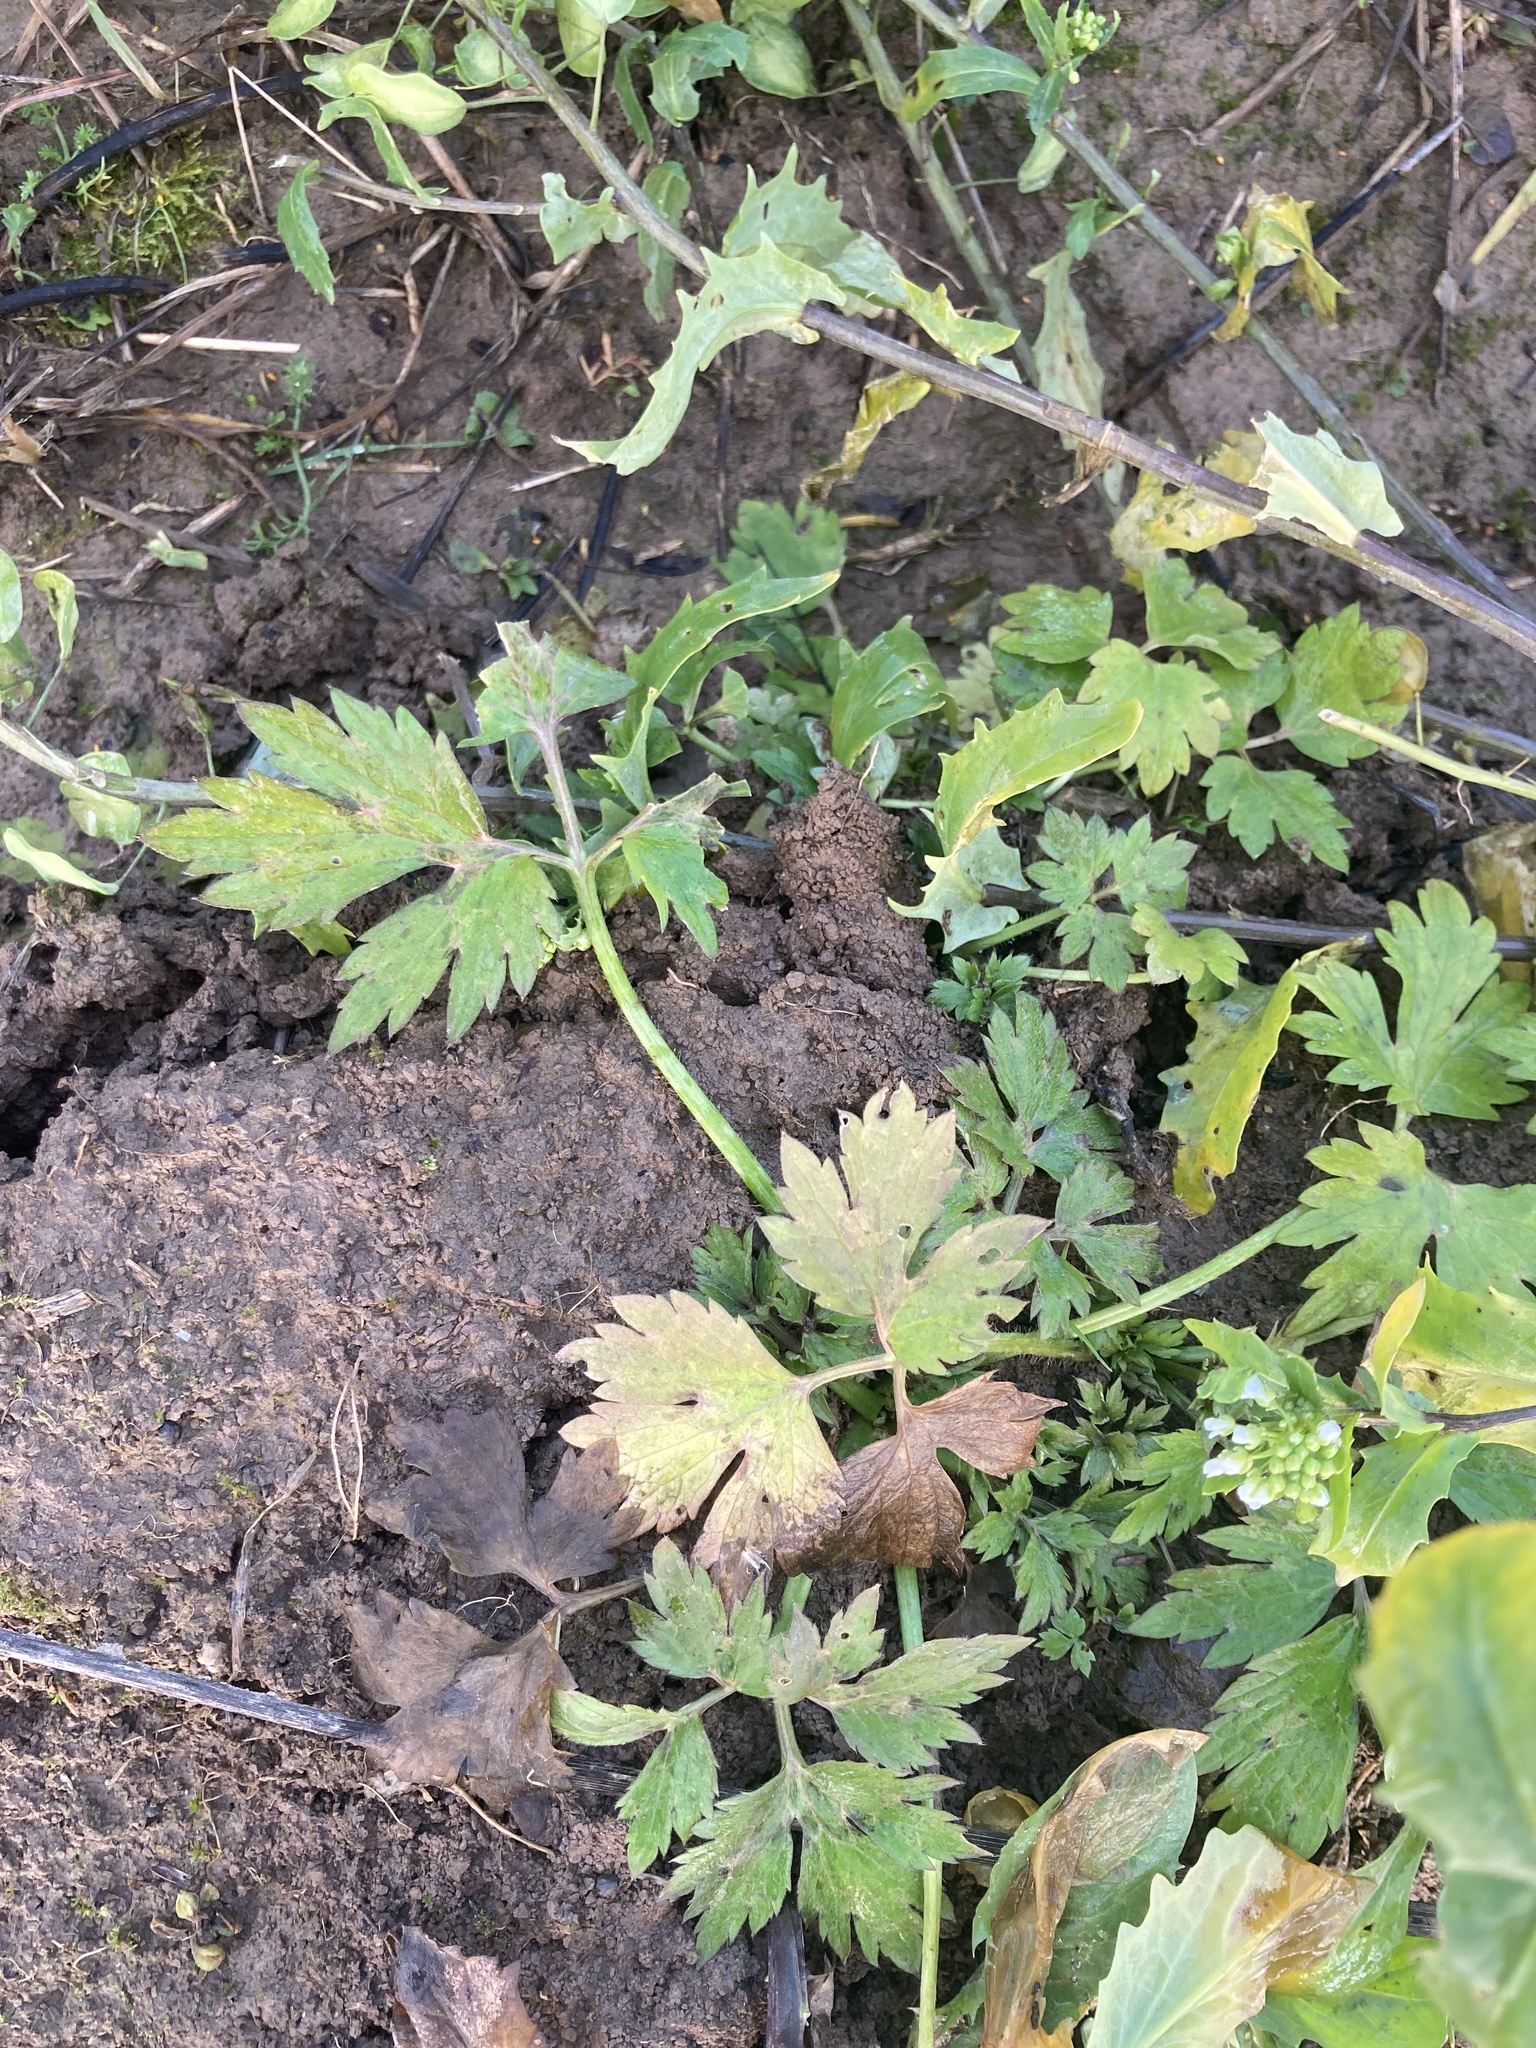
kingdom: Plantae
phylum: Tracheophyta
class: Magnoliopsida
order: Ranunculales
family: Ranunculaceae
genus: Ranunculus
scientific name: Ranunculus repens
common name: Creeping buttercup
